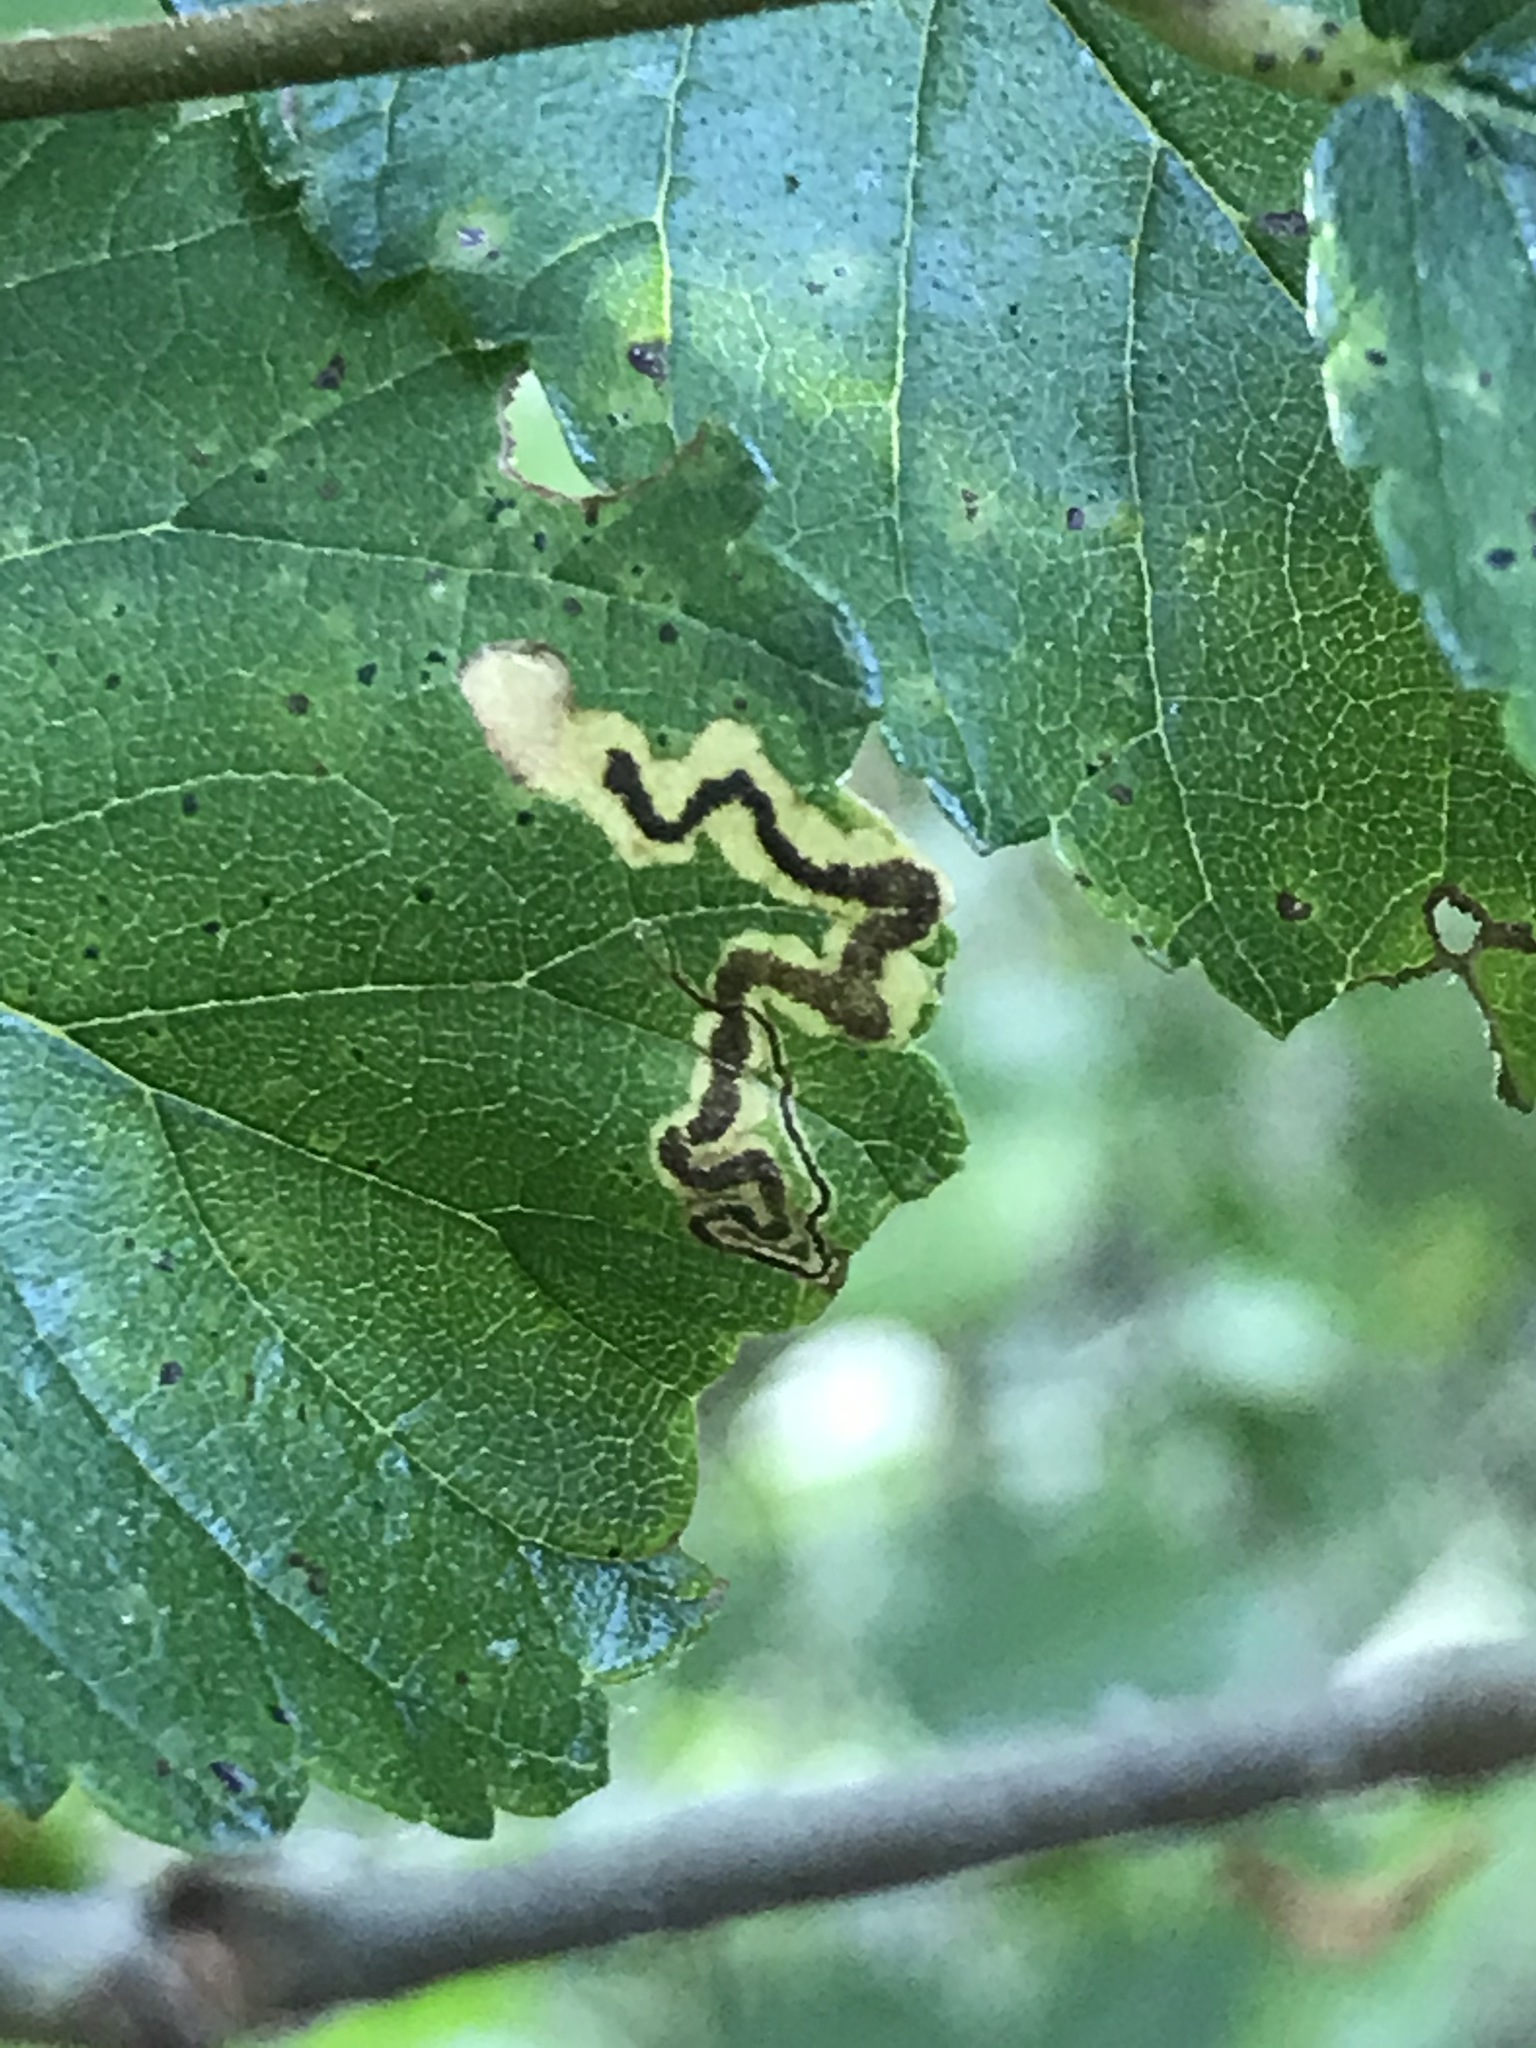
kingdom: Animalia
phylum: Arthropoda
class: Insecta
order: Lepidoptera
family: Nepticulidae
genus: Stigmella
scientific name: Stigmella multispicata
